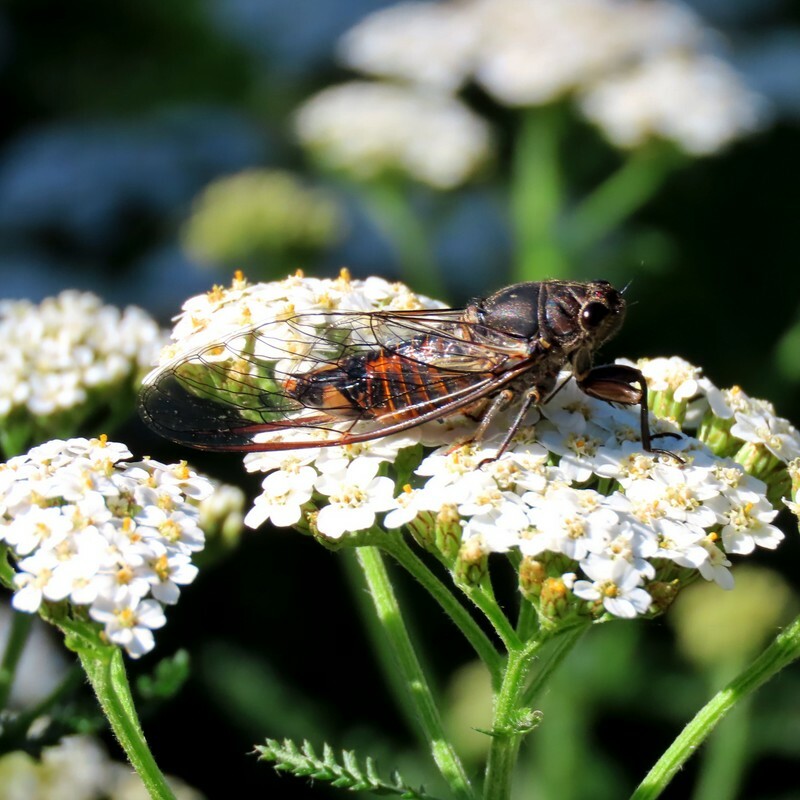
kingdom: Animalia
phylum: Arthropoda
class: Insecta
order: Hemiptera
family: Cicadidae
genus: Yoyetta
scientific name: Yoyetta robertsonae
